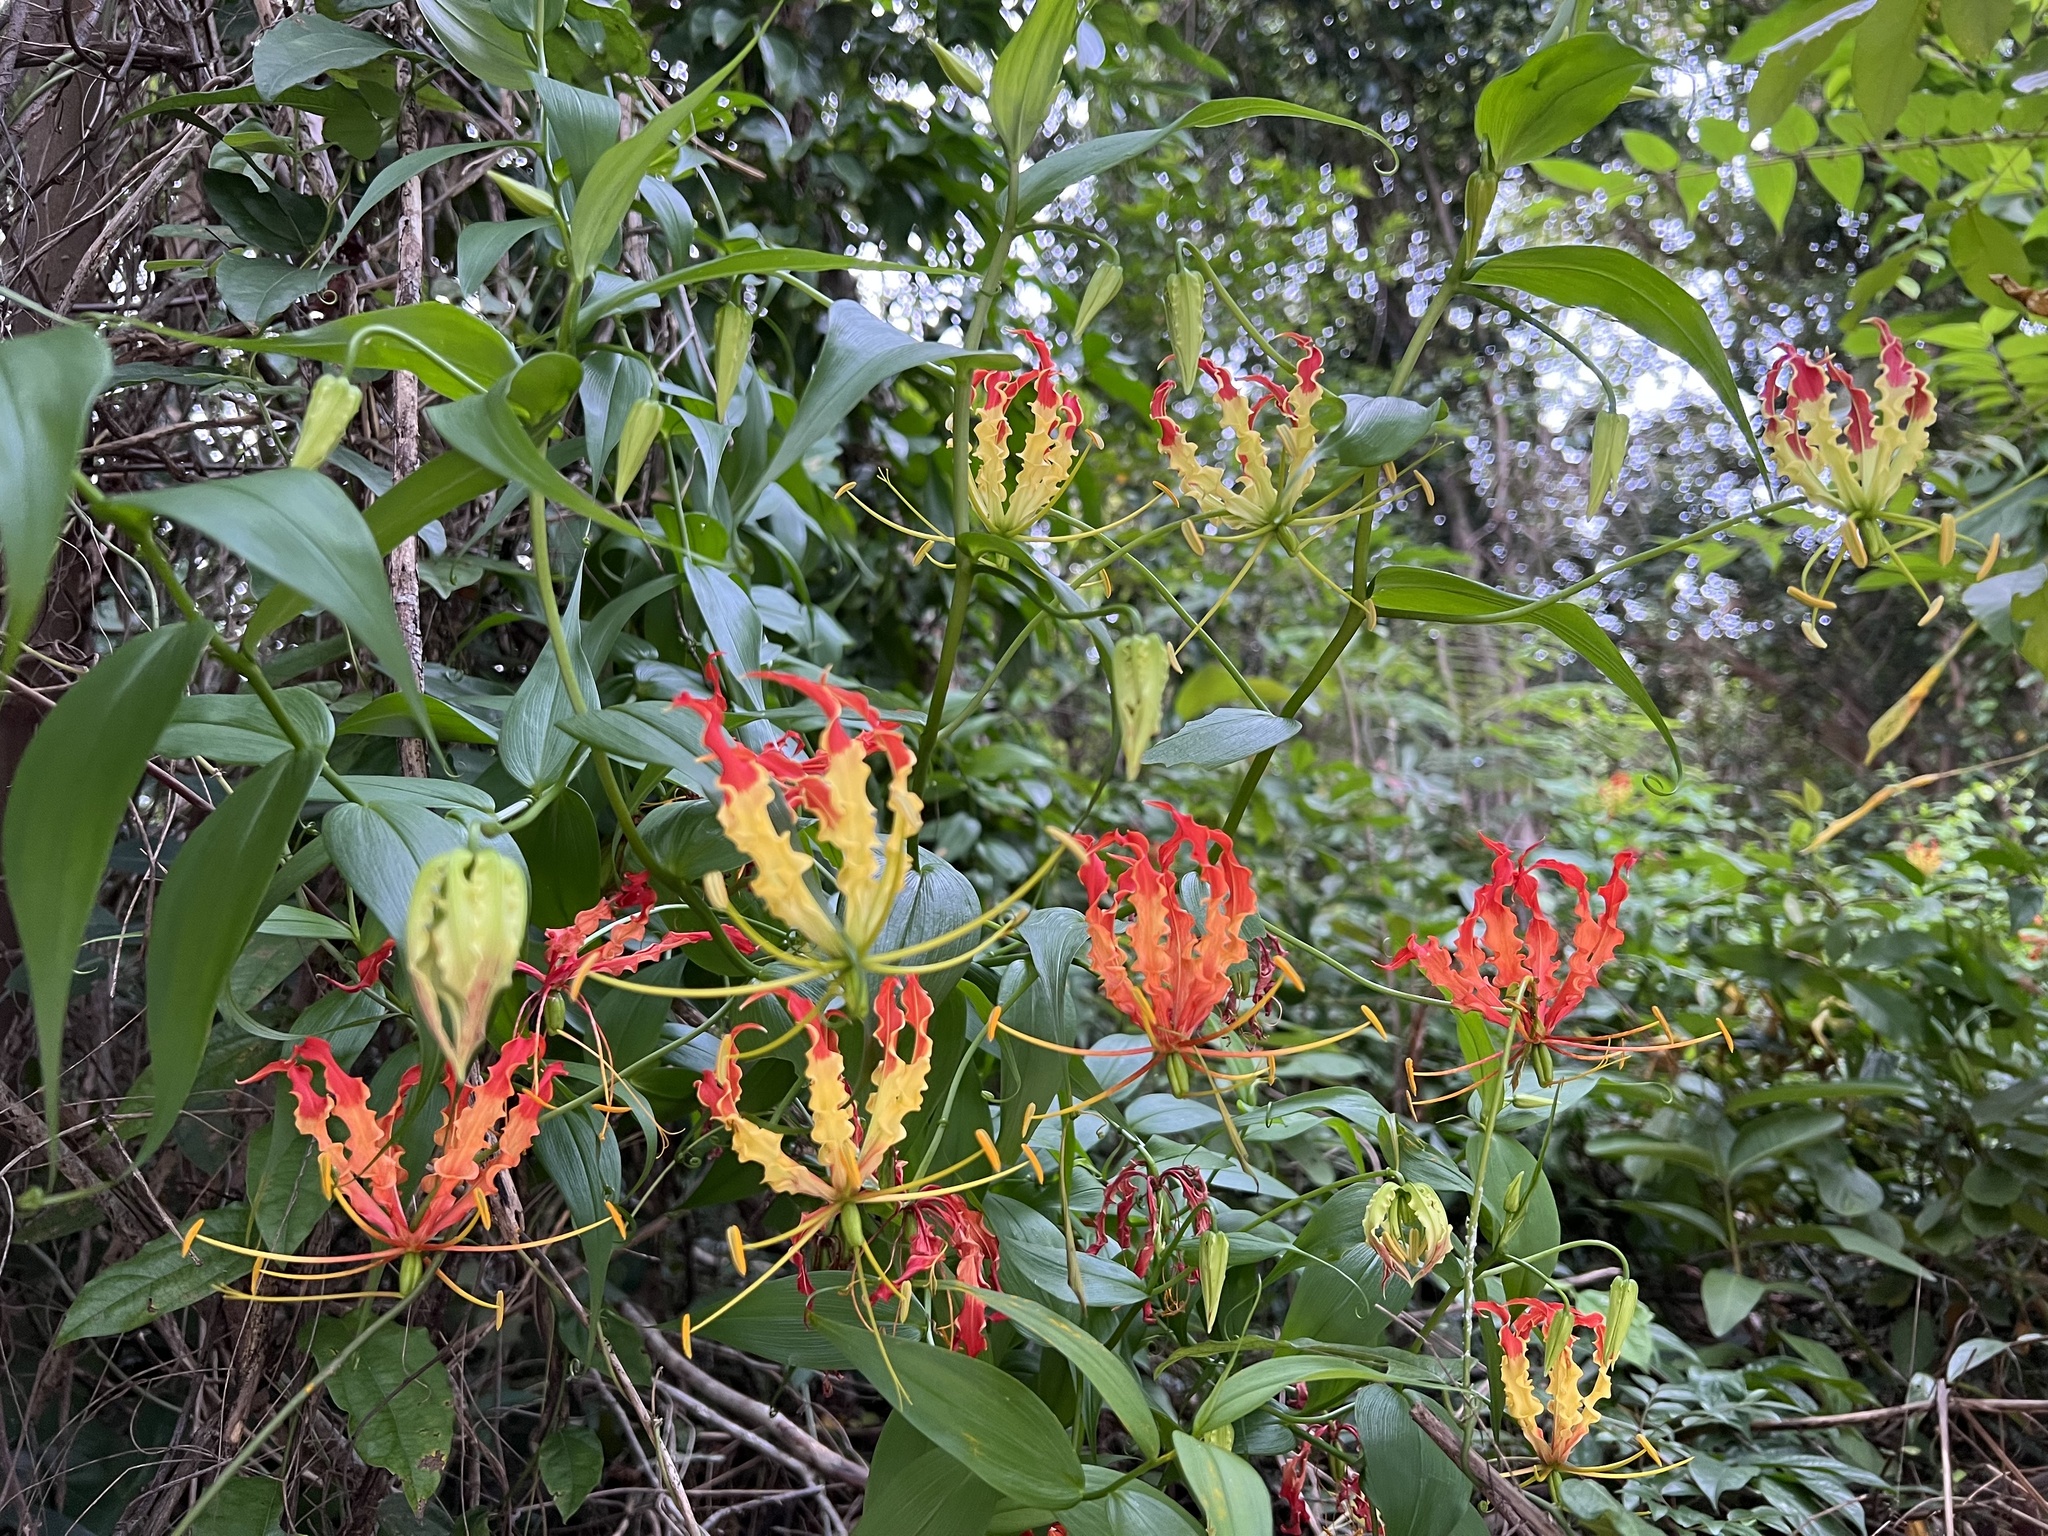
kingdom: Plantae
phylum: Tracheophyta
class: Liliopsida
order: Liliales
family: Colchicaceae
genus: Gloriosa
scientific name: Gloriosa superba
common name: Flame lily
